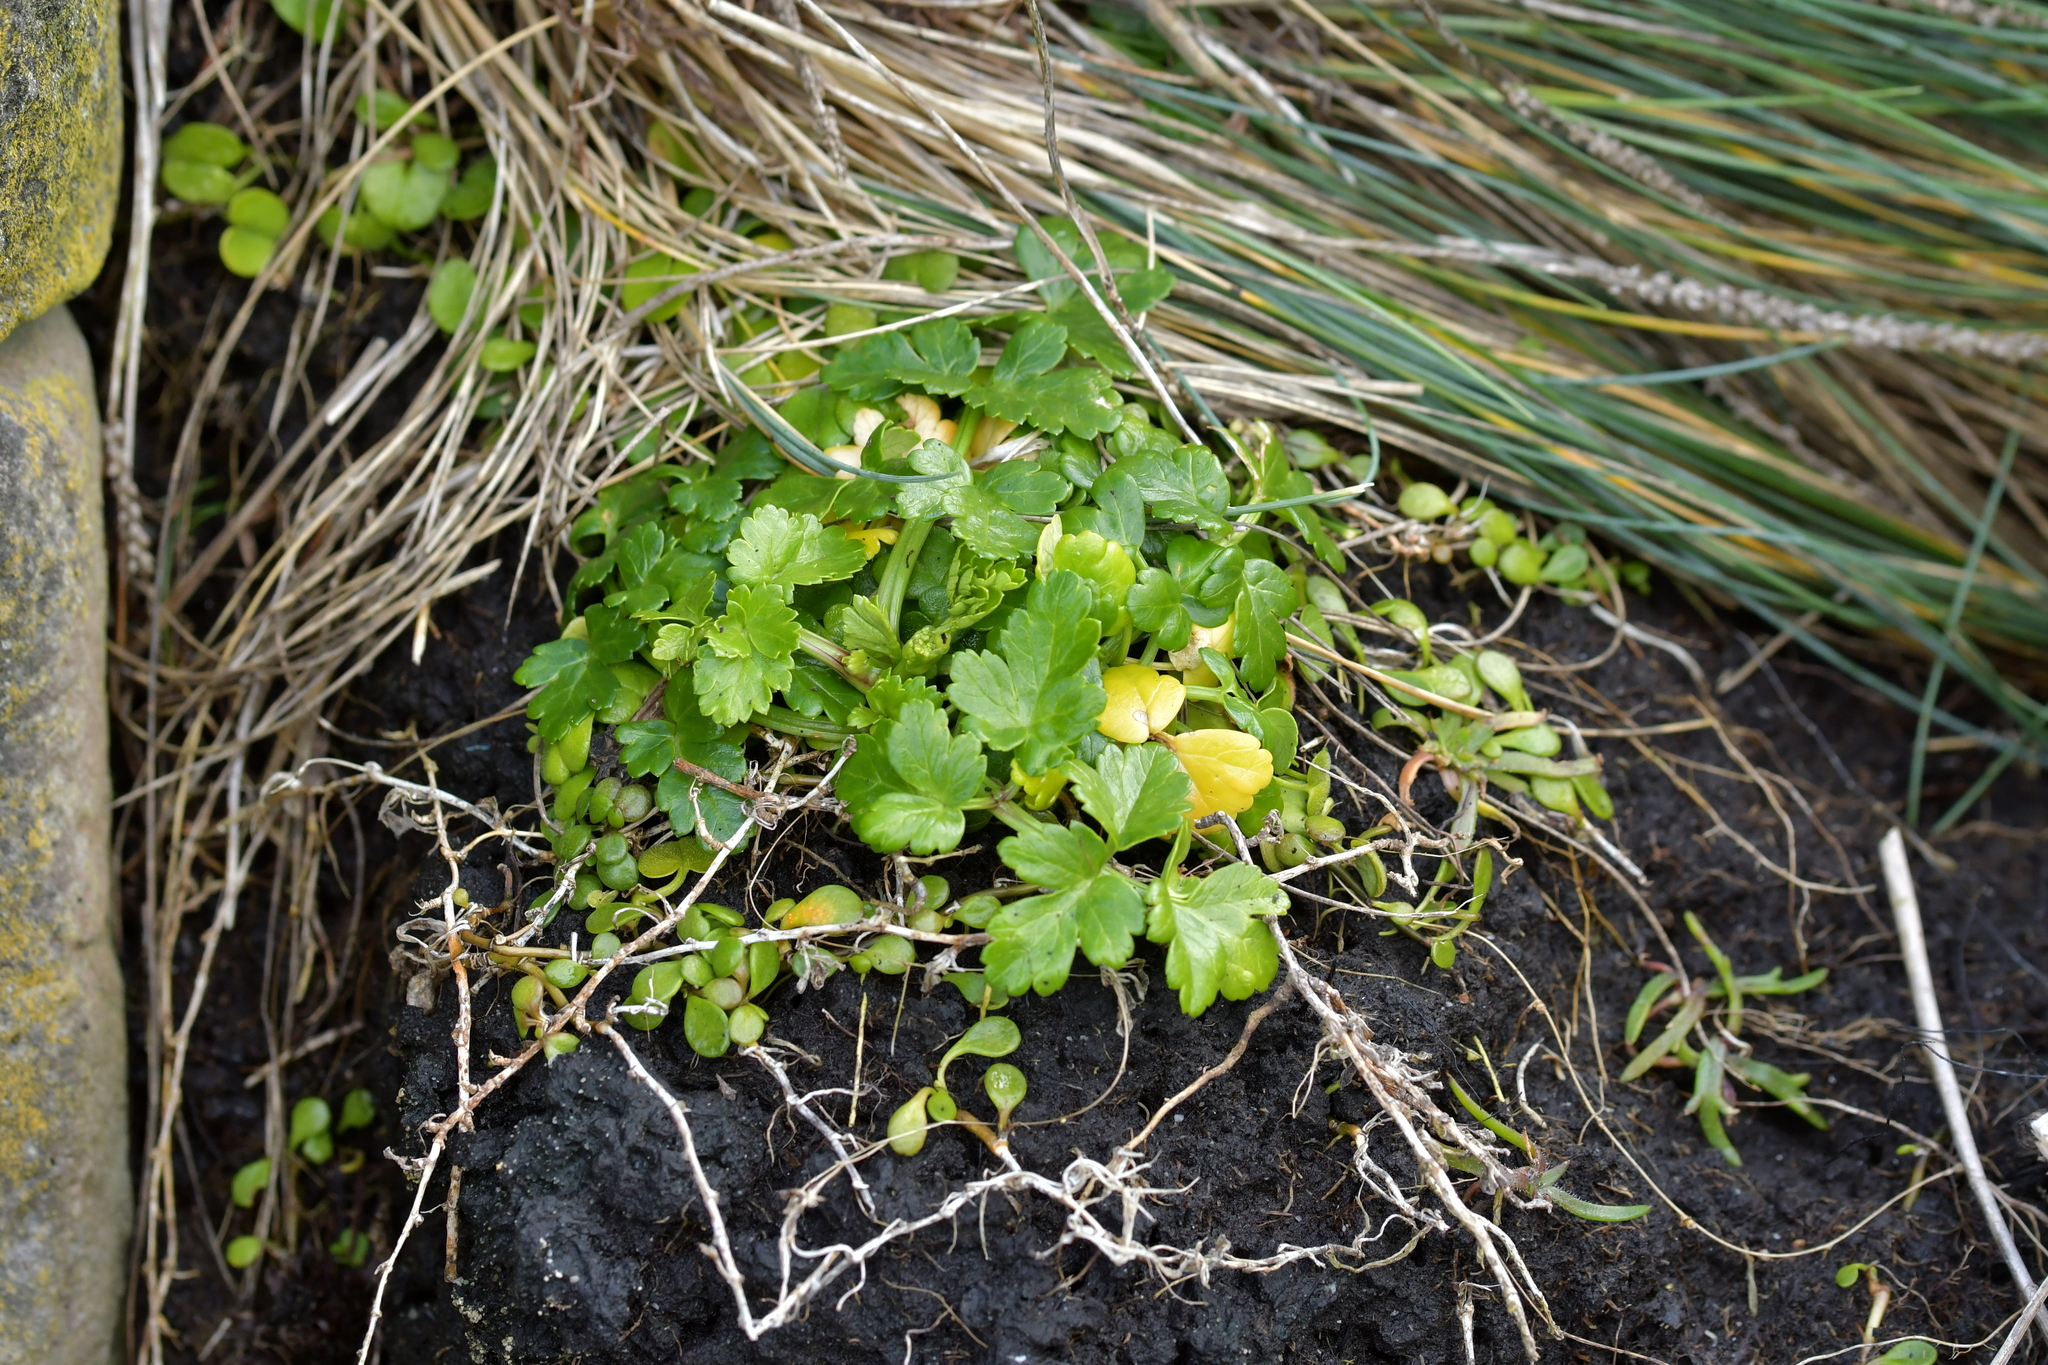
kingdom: Plantae
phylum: Tracheophyta
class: Magnoliopsida
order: Apiales
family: Apiaceae
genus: Apium
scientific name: Apium prostratum
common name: Prostrate marshwort
